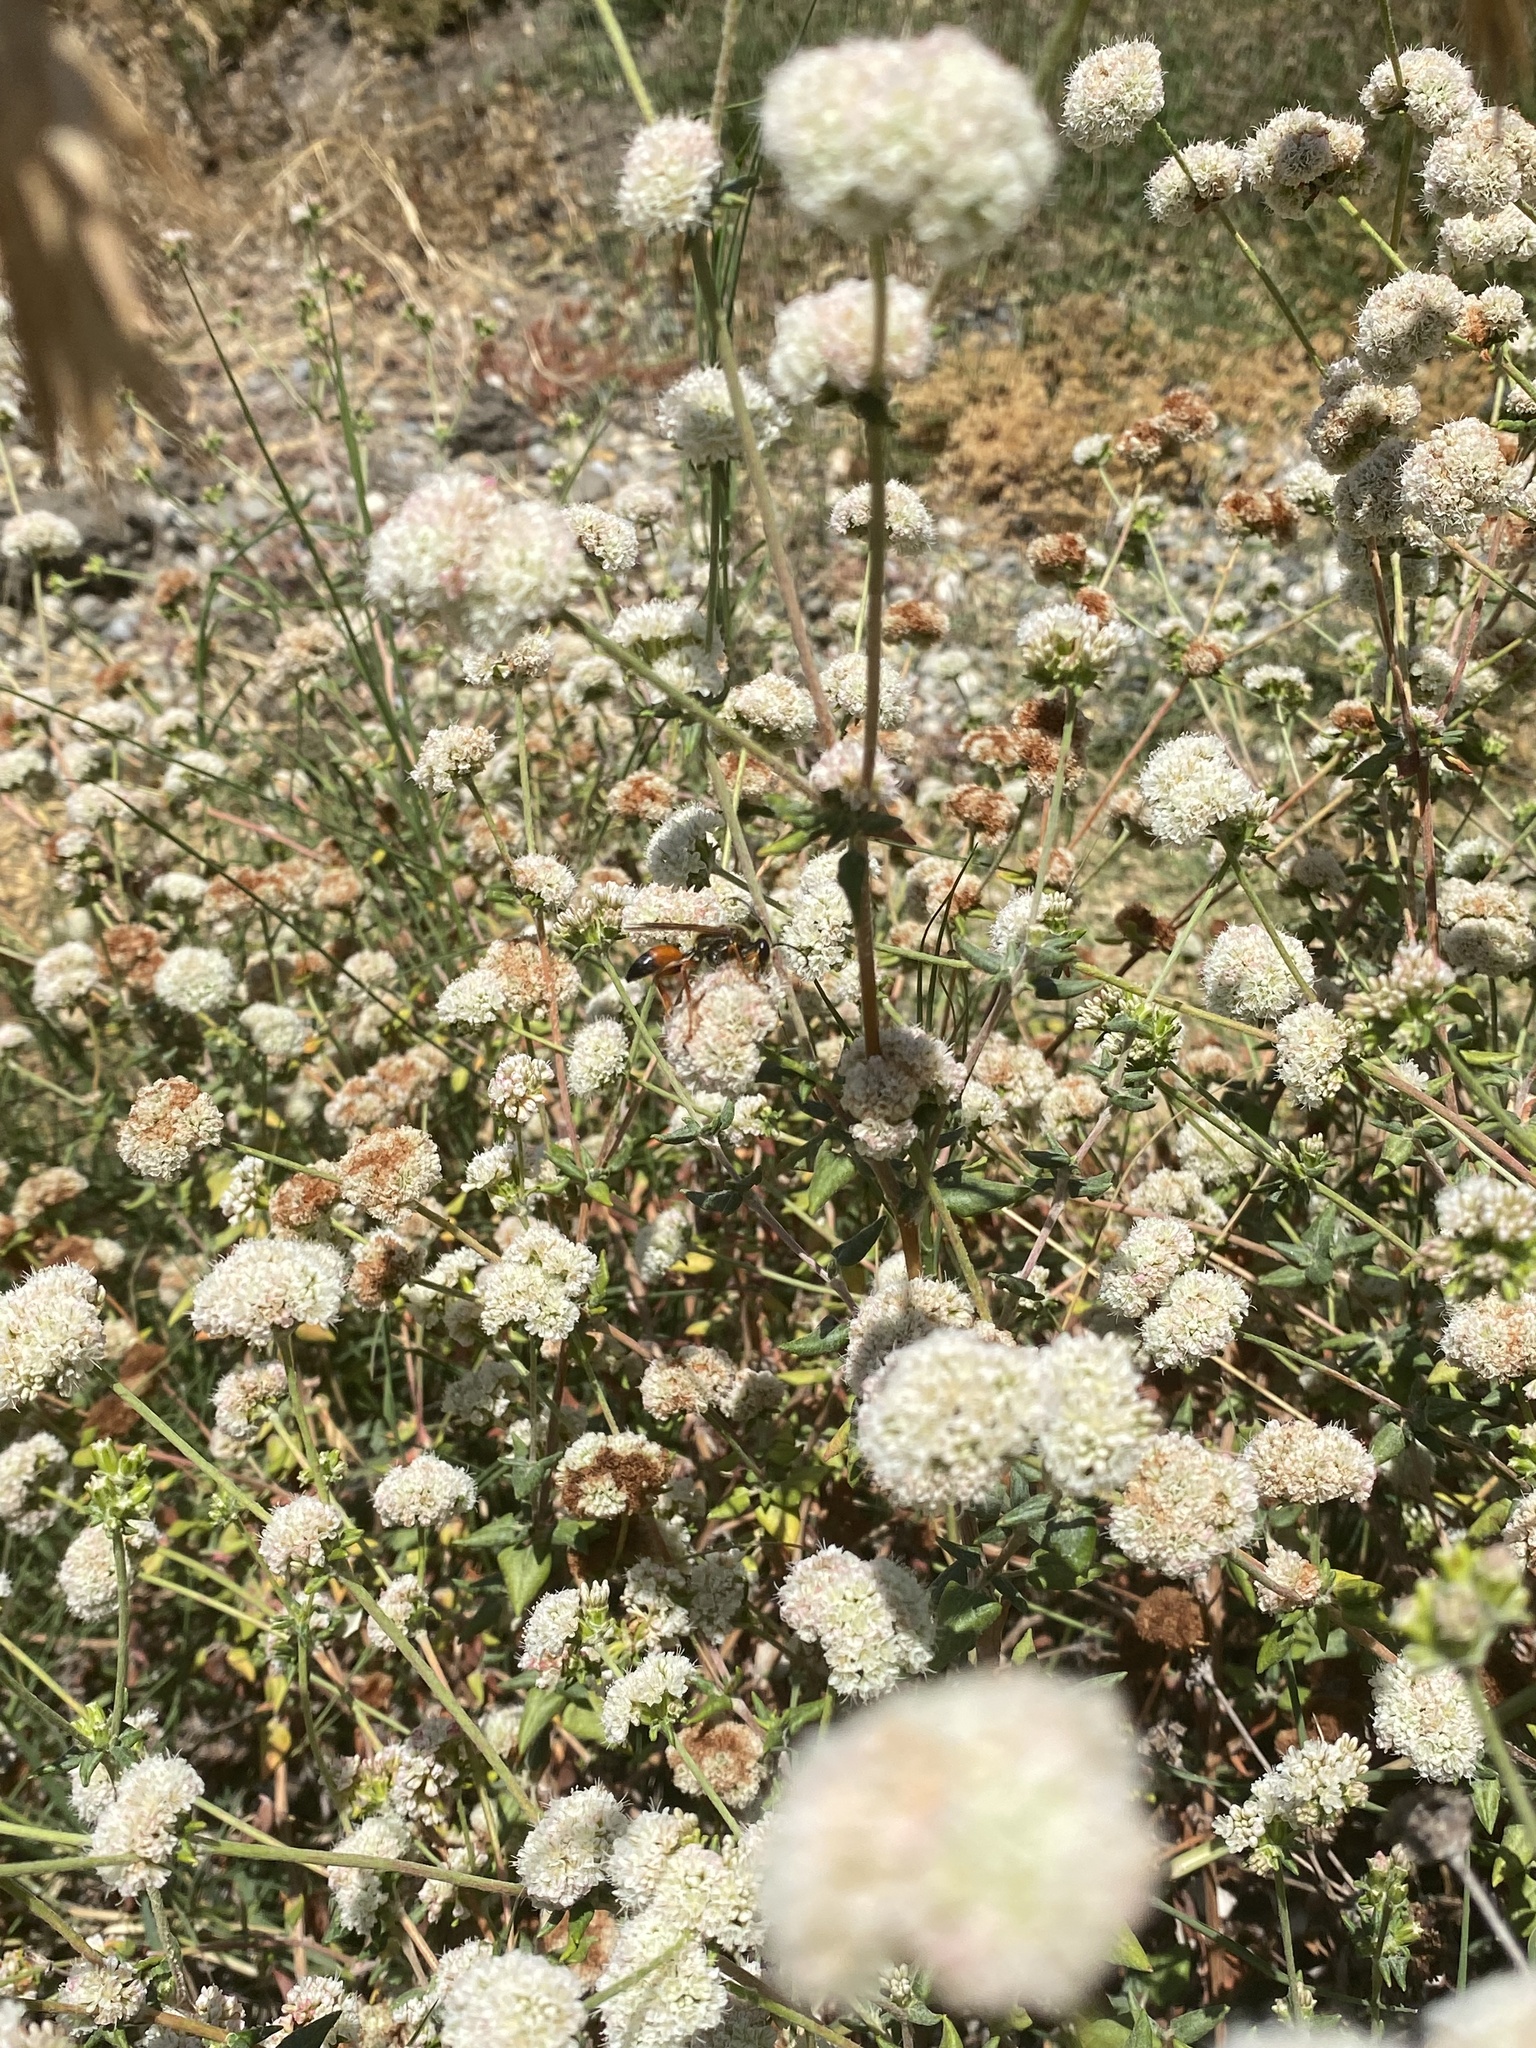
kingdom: Animalia
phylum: Arthropoda
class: Insecta
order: Hymenoptera
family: Sphecidae
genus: Sphex
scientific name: Sphex ichneumoneus
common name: Great golden digger wasp
